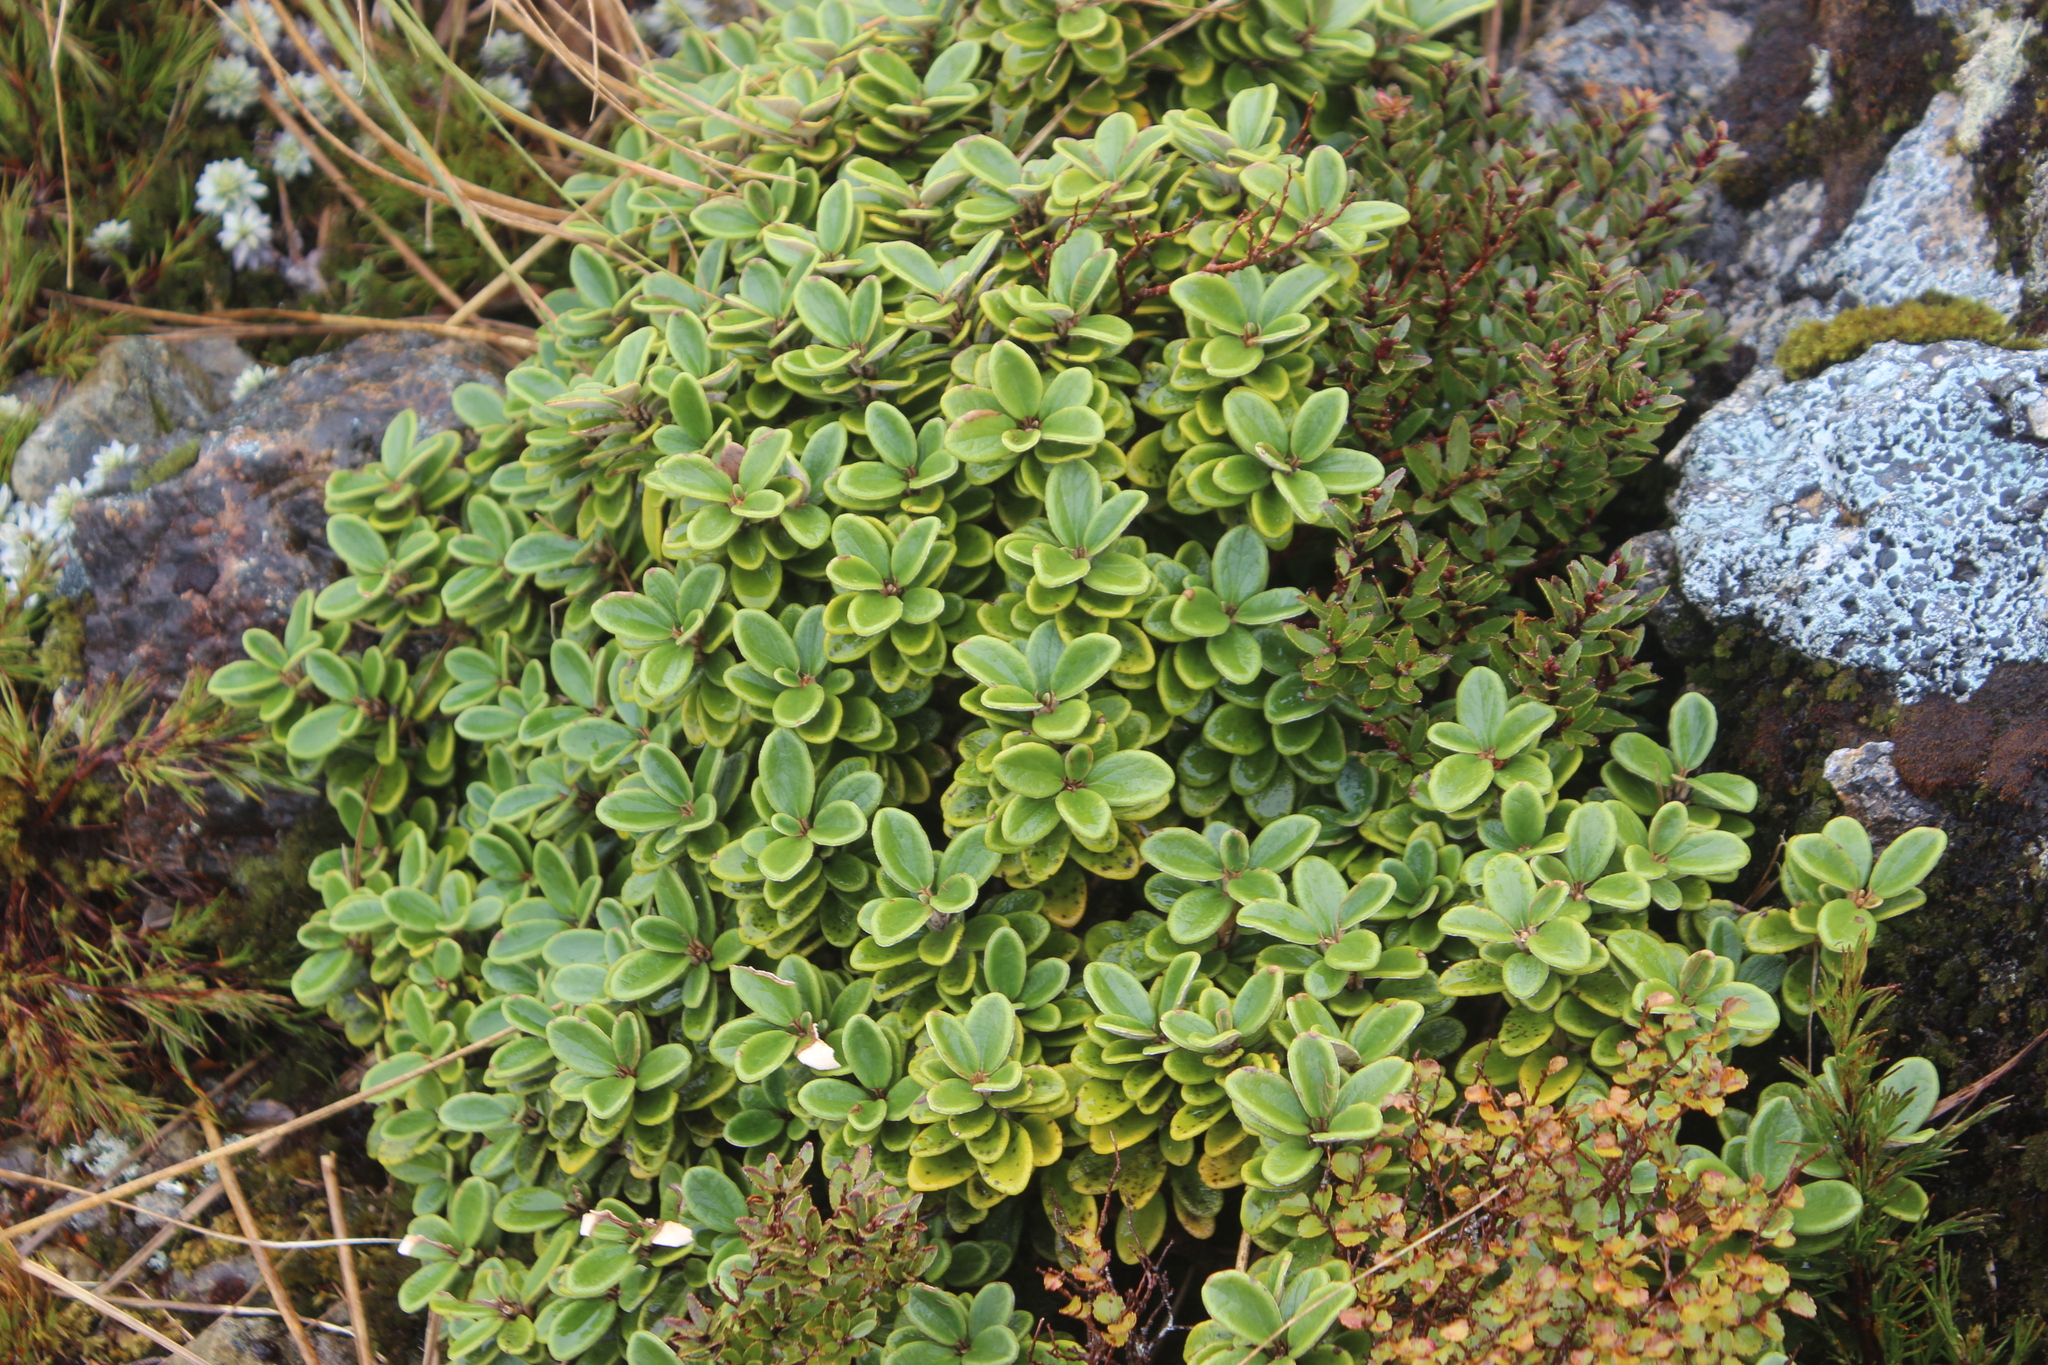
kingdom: Plantae
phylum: Tracheophyta
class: Magnoliopsida
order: Asterales
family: Asteraceae
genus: Brachyglottis
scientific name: Brachyglottis bidwillii
